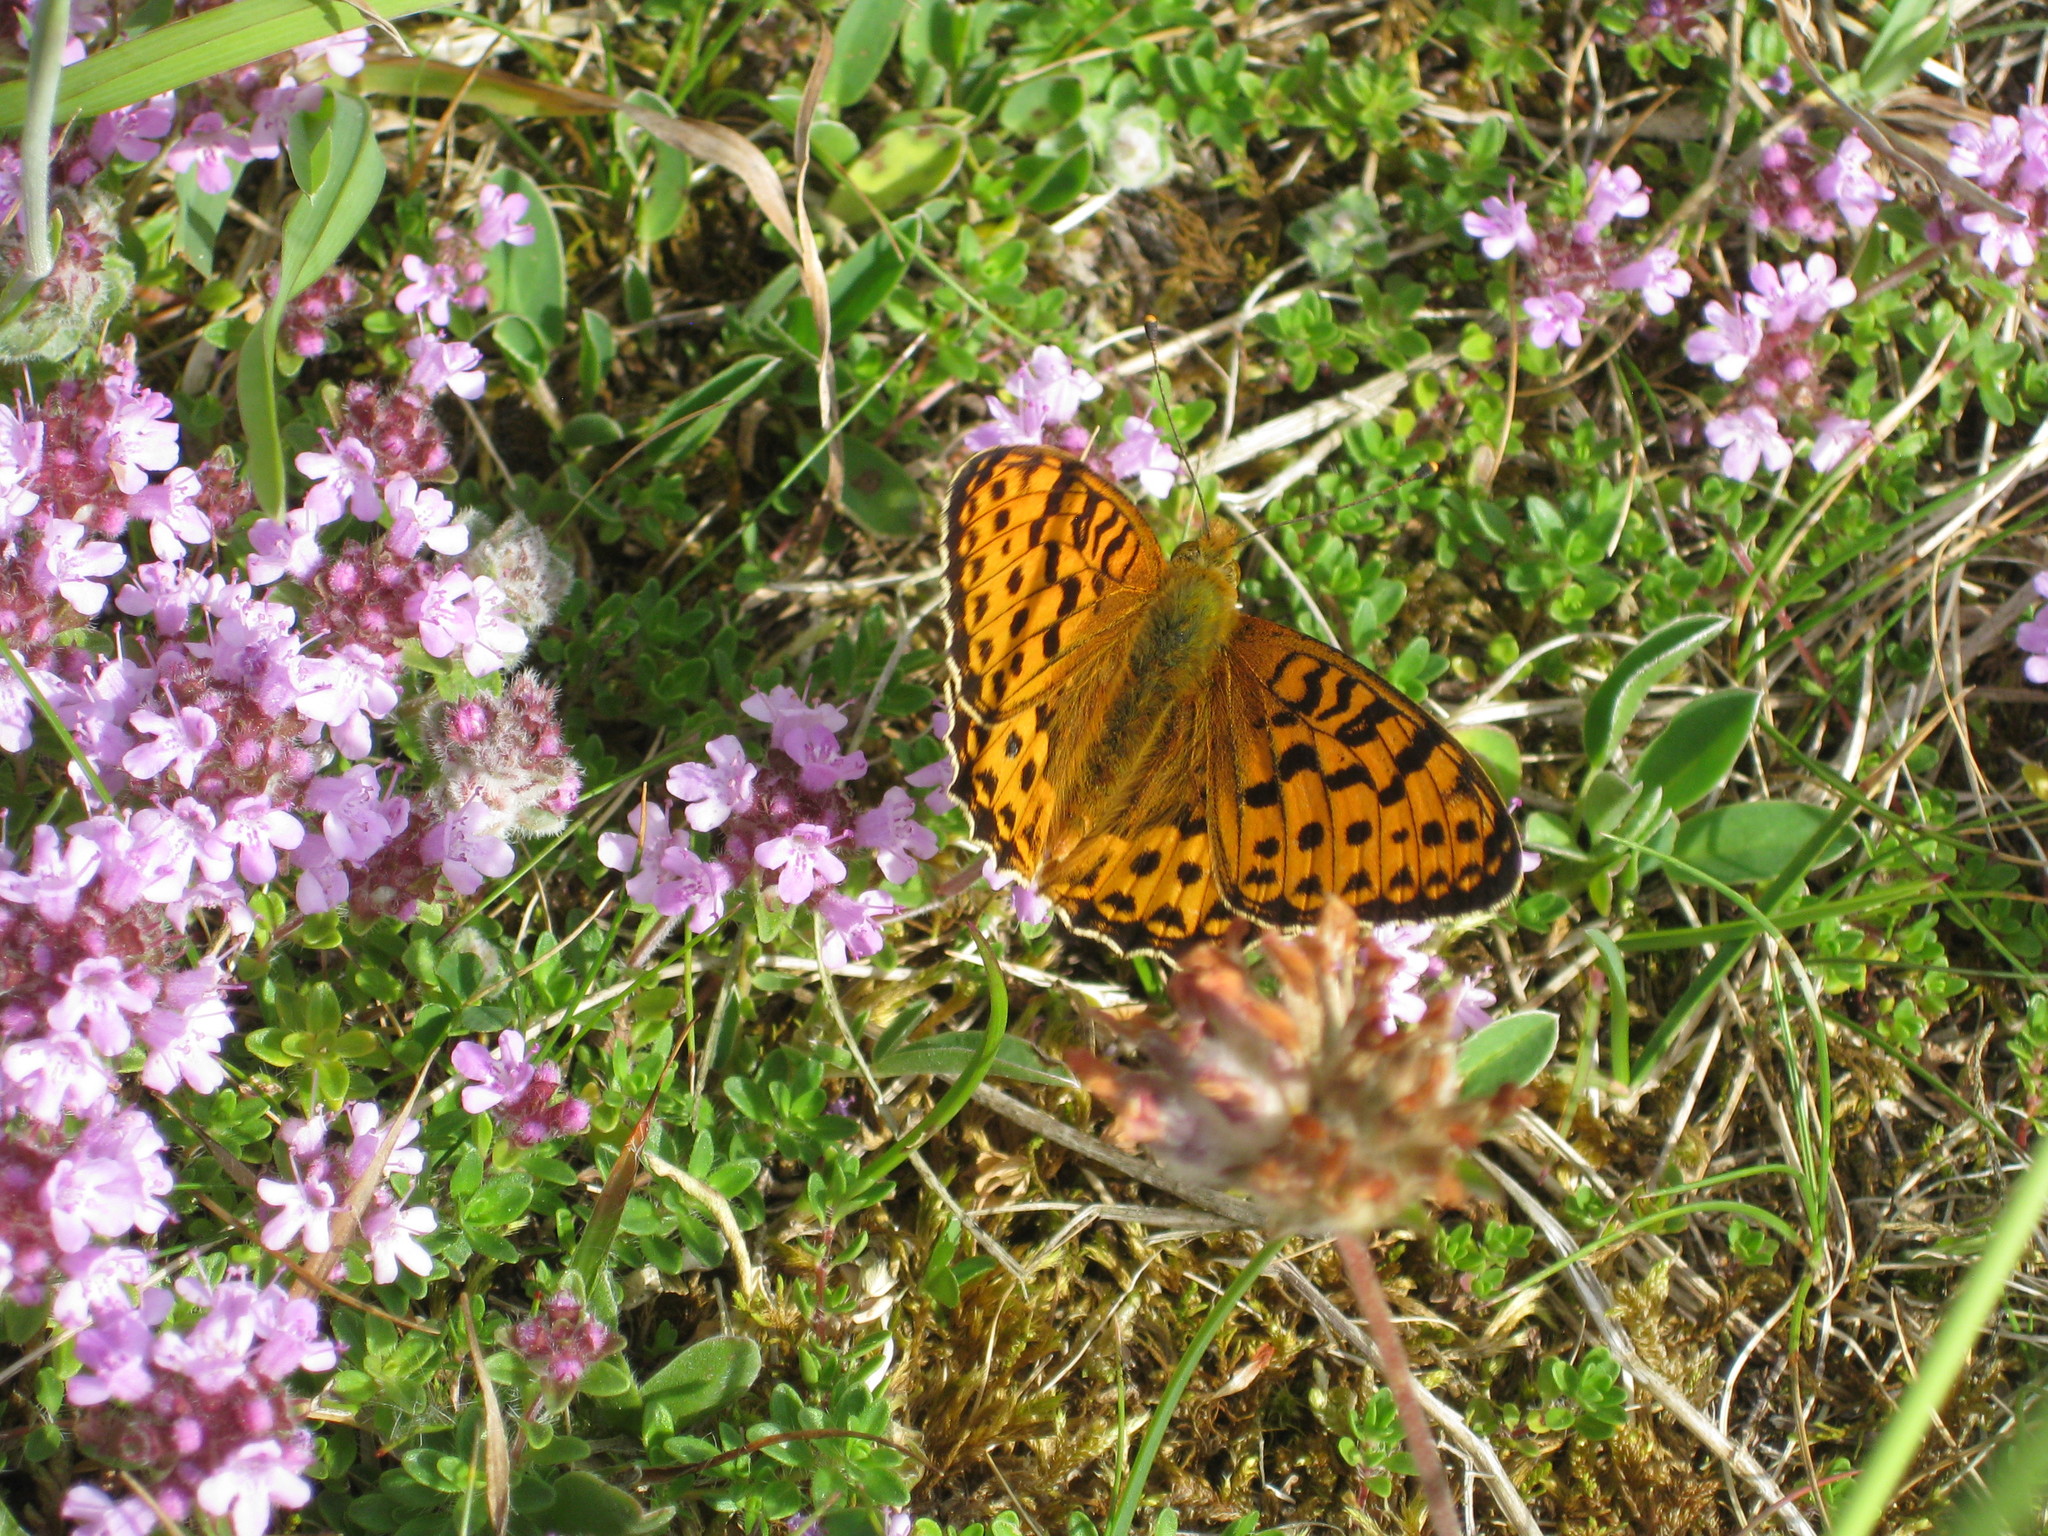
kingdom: Animalia
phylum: Arthropoda
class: Insecta
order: Lepidoptera
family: Nymphalidae
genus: Speyeria
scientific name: Speyeria aglaja
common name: Dark green fritillary
